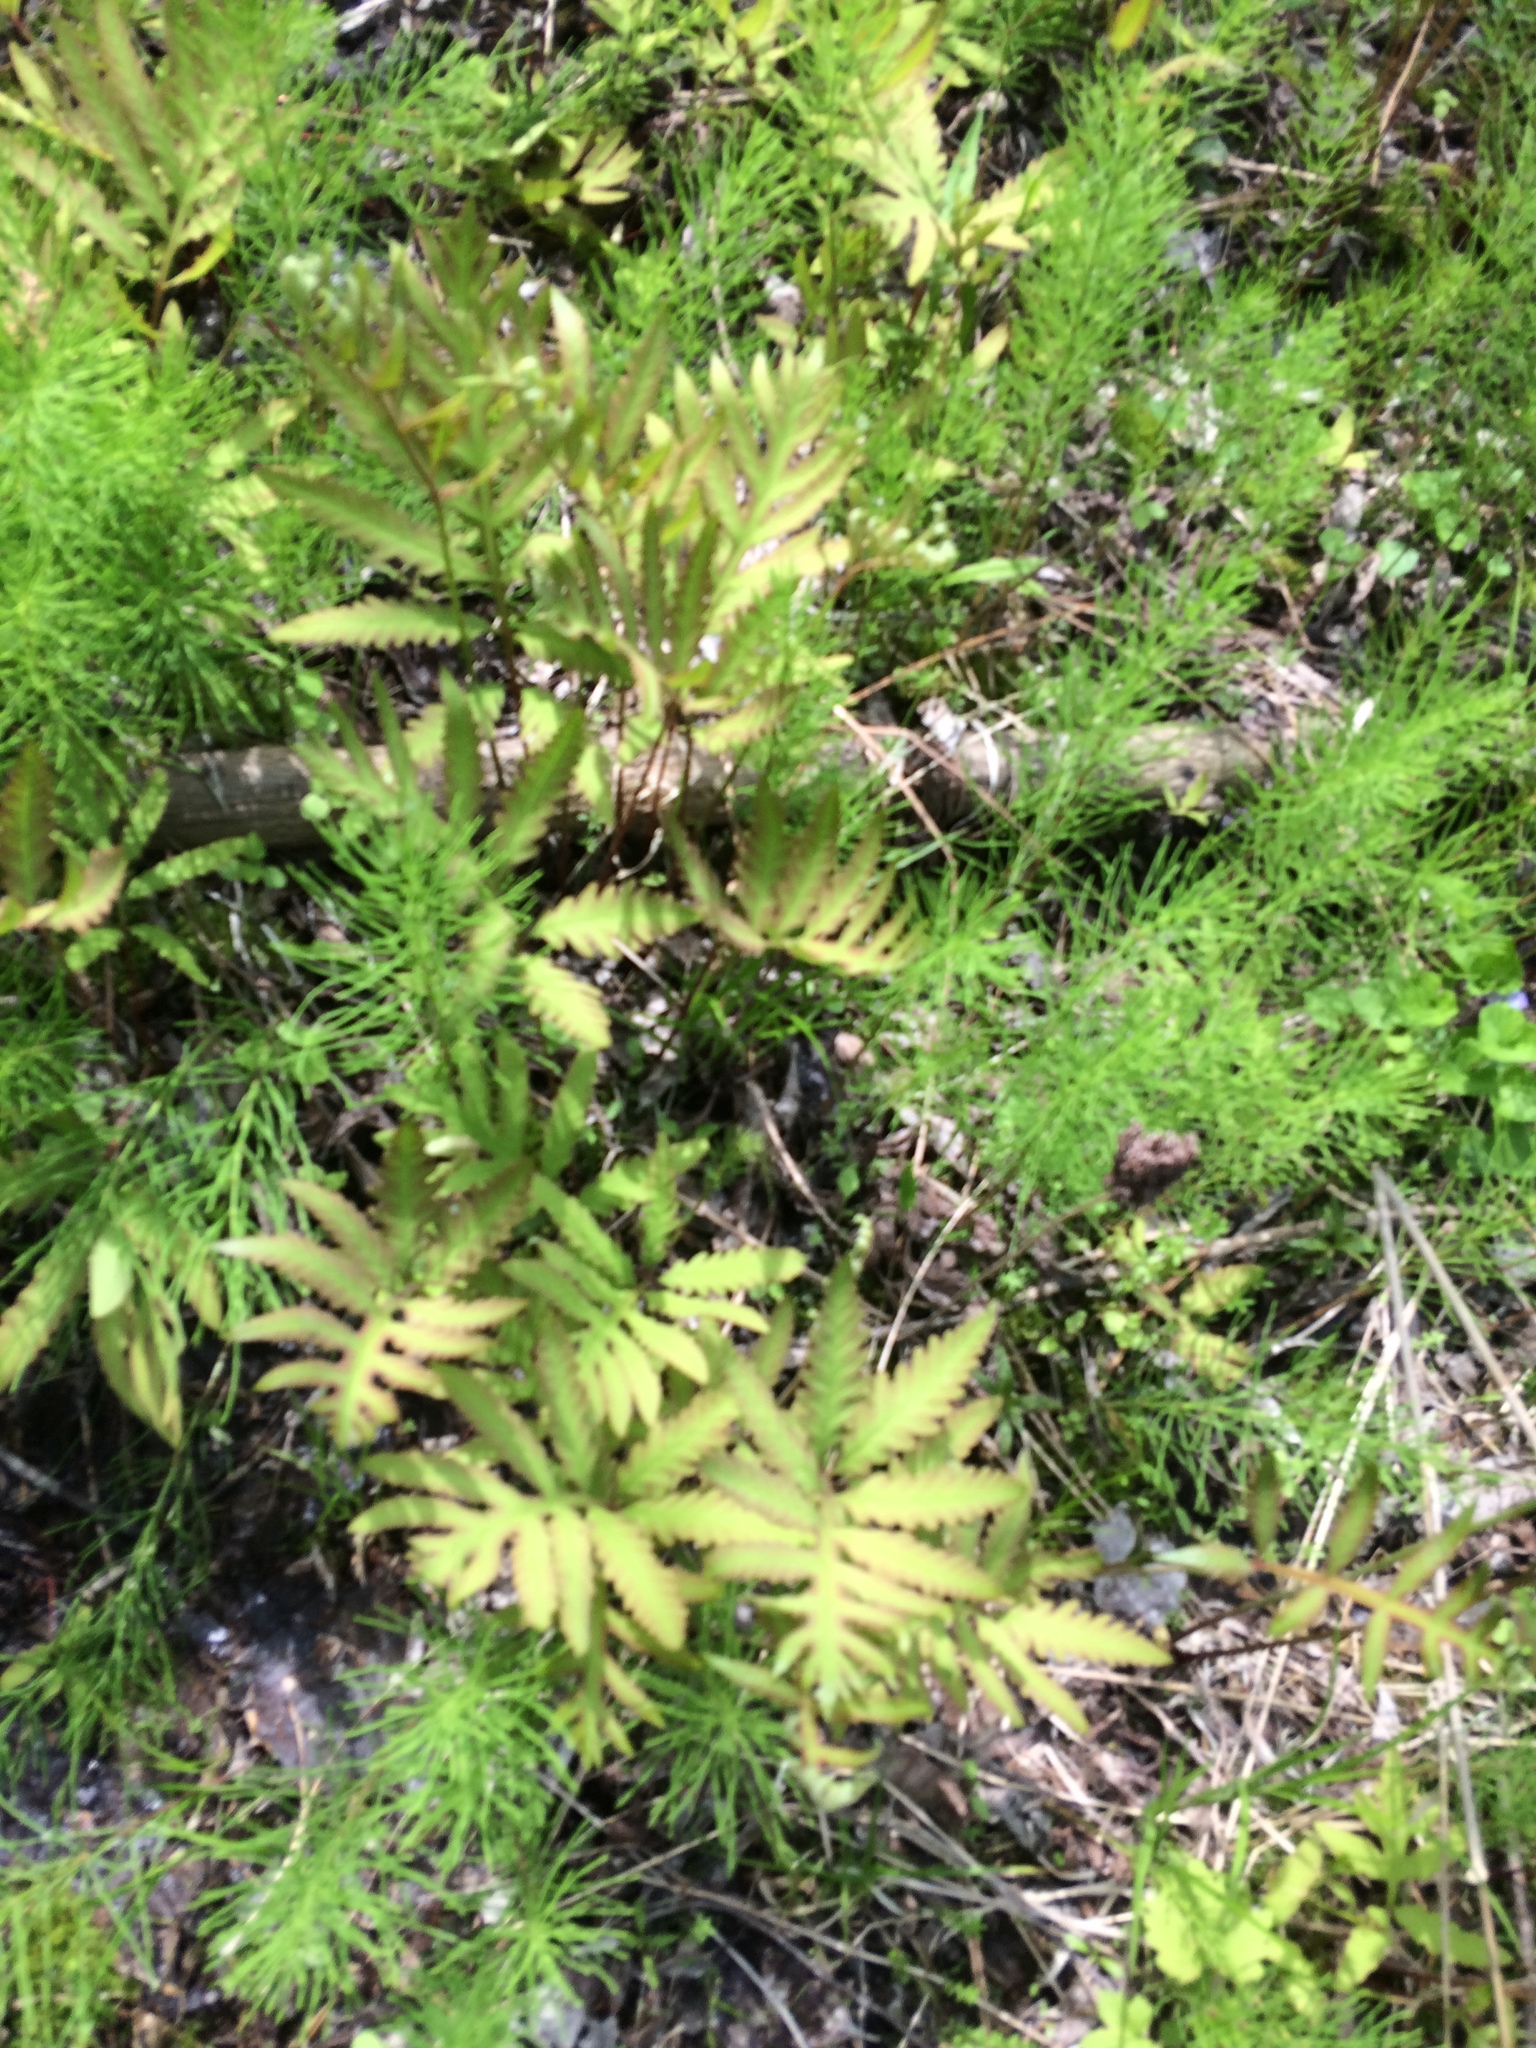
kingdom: Plantae
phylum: Tracheophyta
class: Polypodiopsida
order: Polypodiales
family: Onocleaceae
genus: Onoclea
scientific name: Onoclea sensibilis
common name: Sensitive fern
